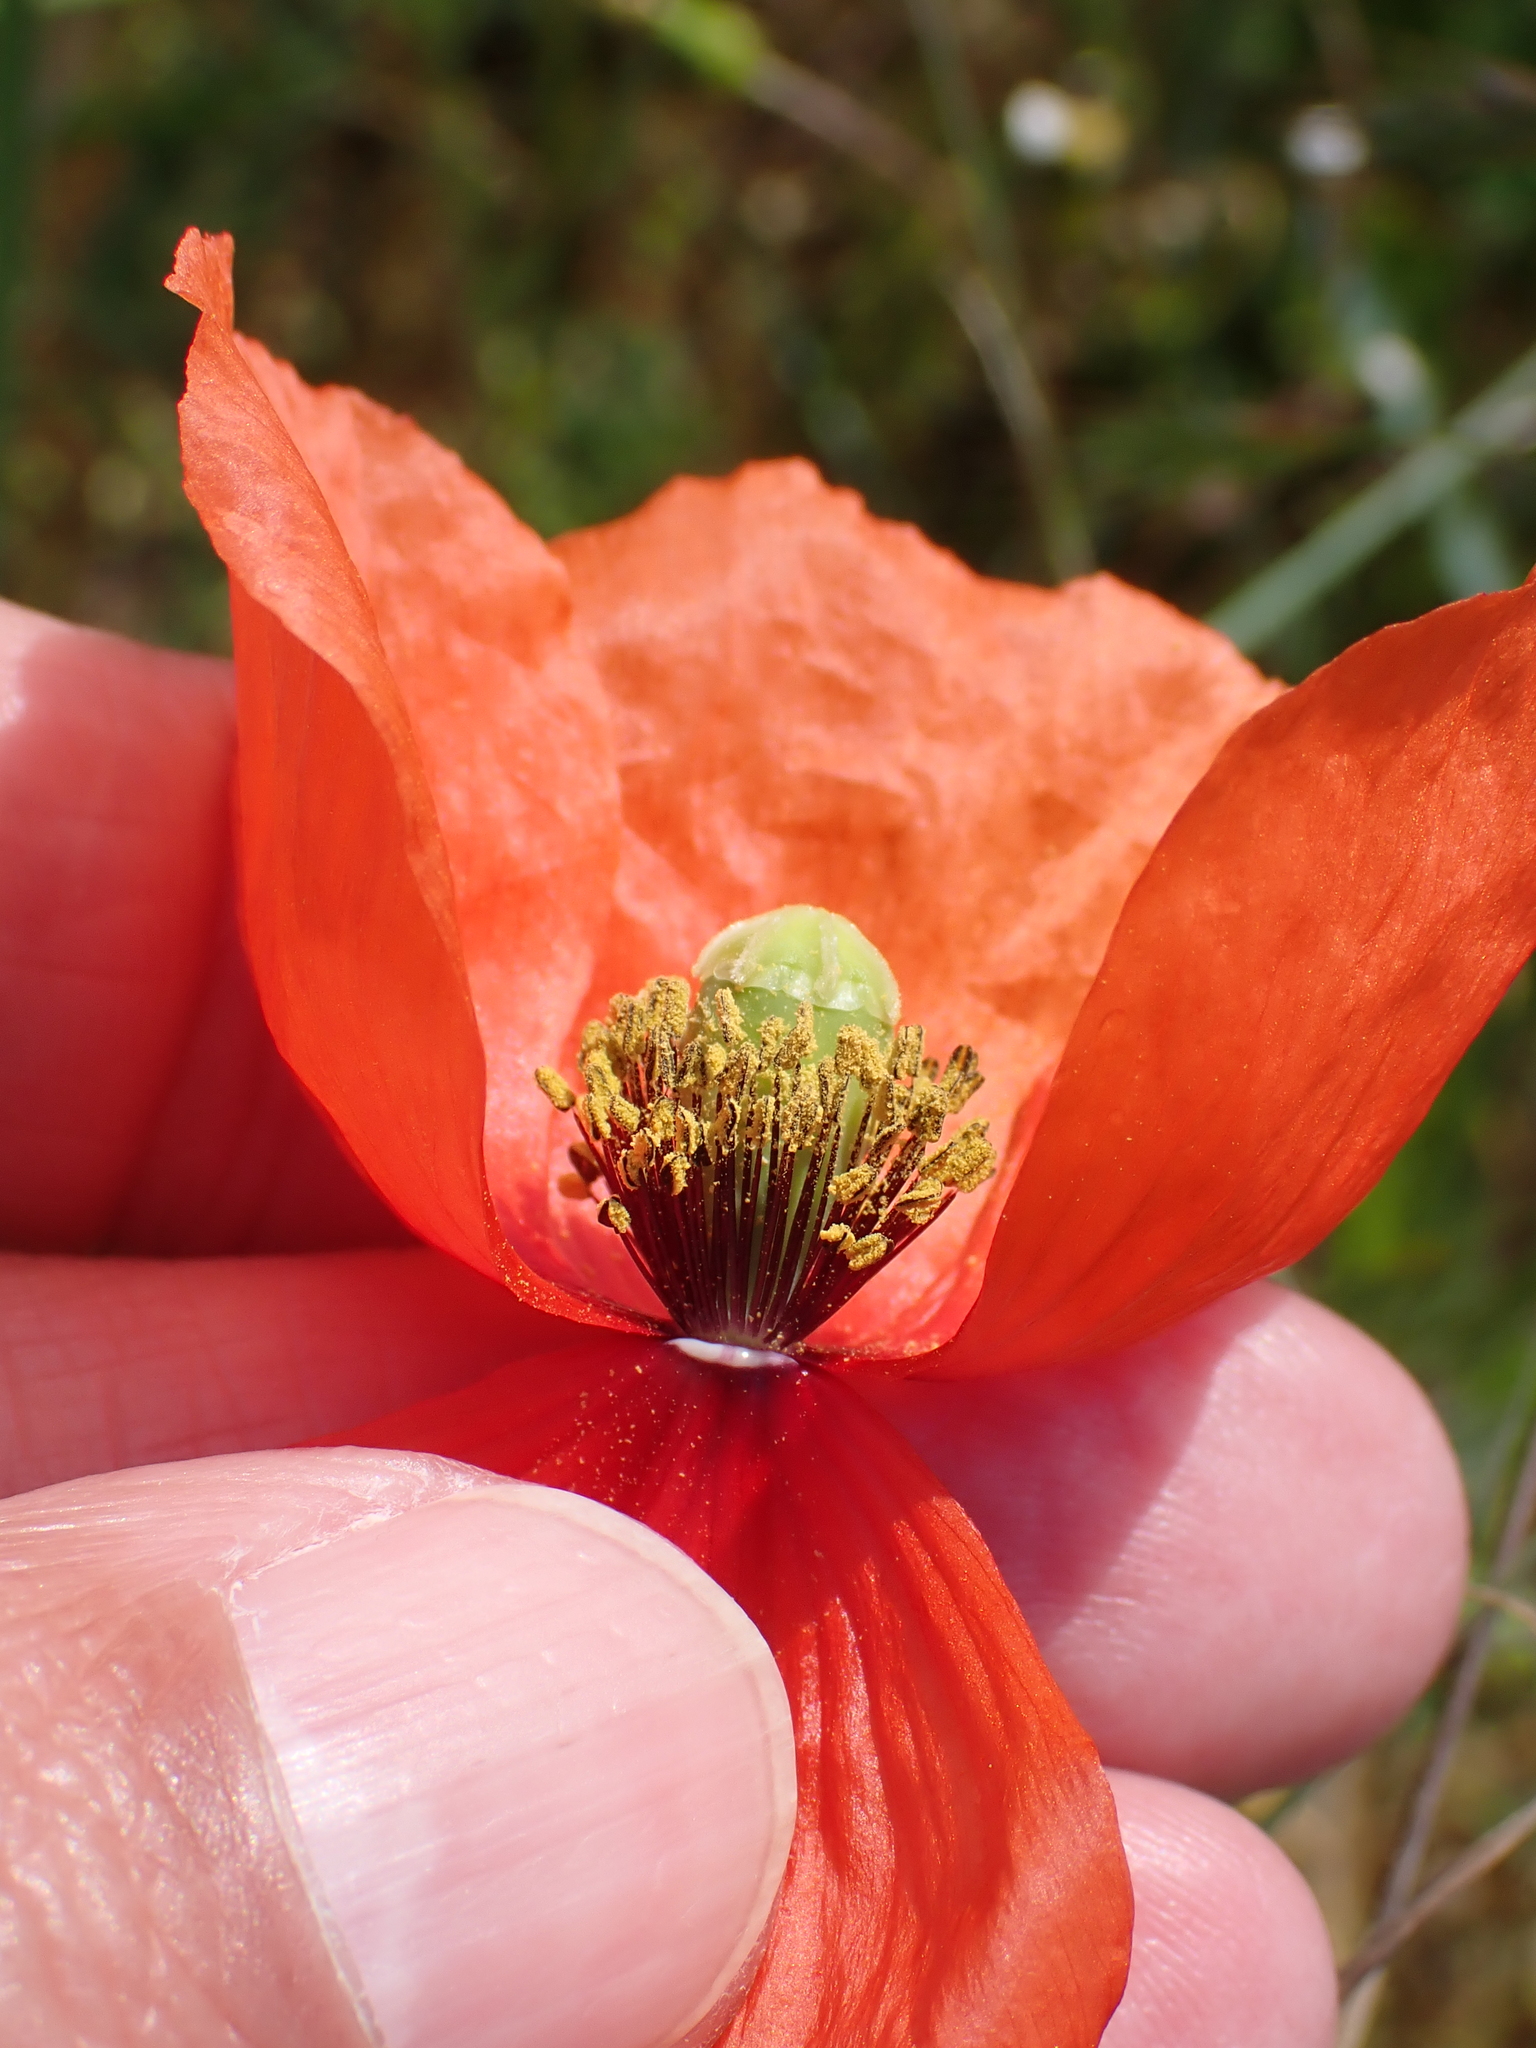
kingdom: Plantae
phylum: Tracheophyta
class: Magnoliopsida
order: Ranunculales
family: Papaveraceae
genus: Papaver
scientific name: Papaver dubium
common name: Long-headed poppy
